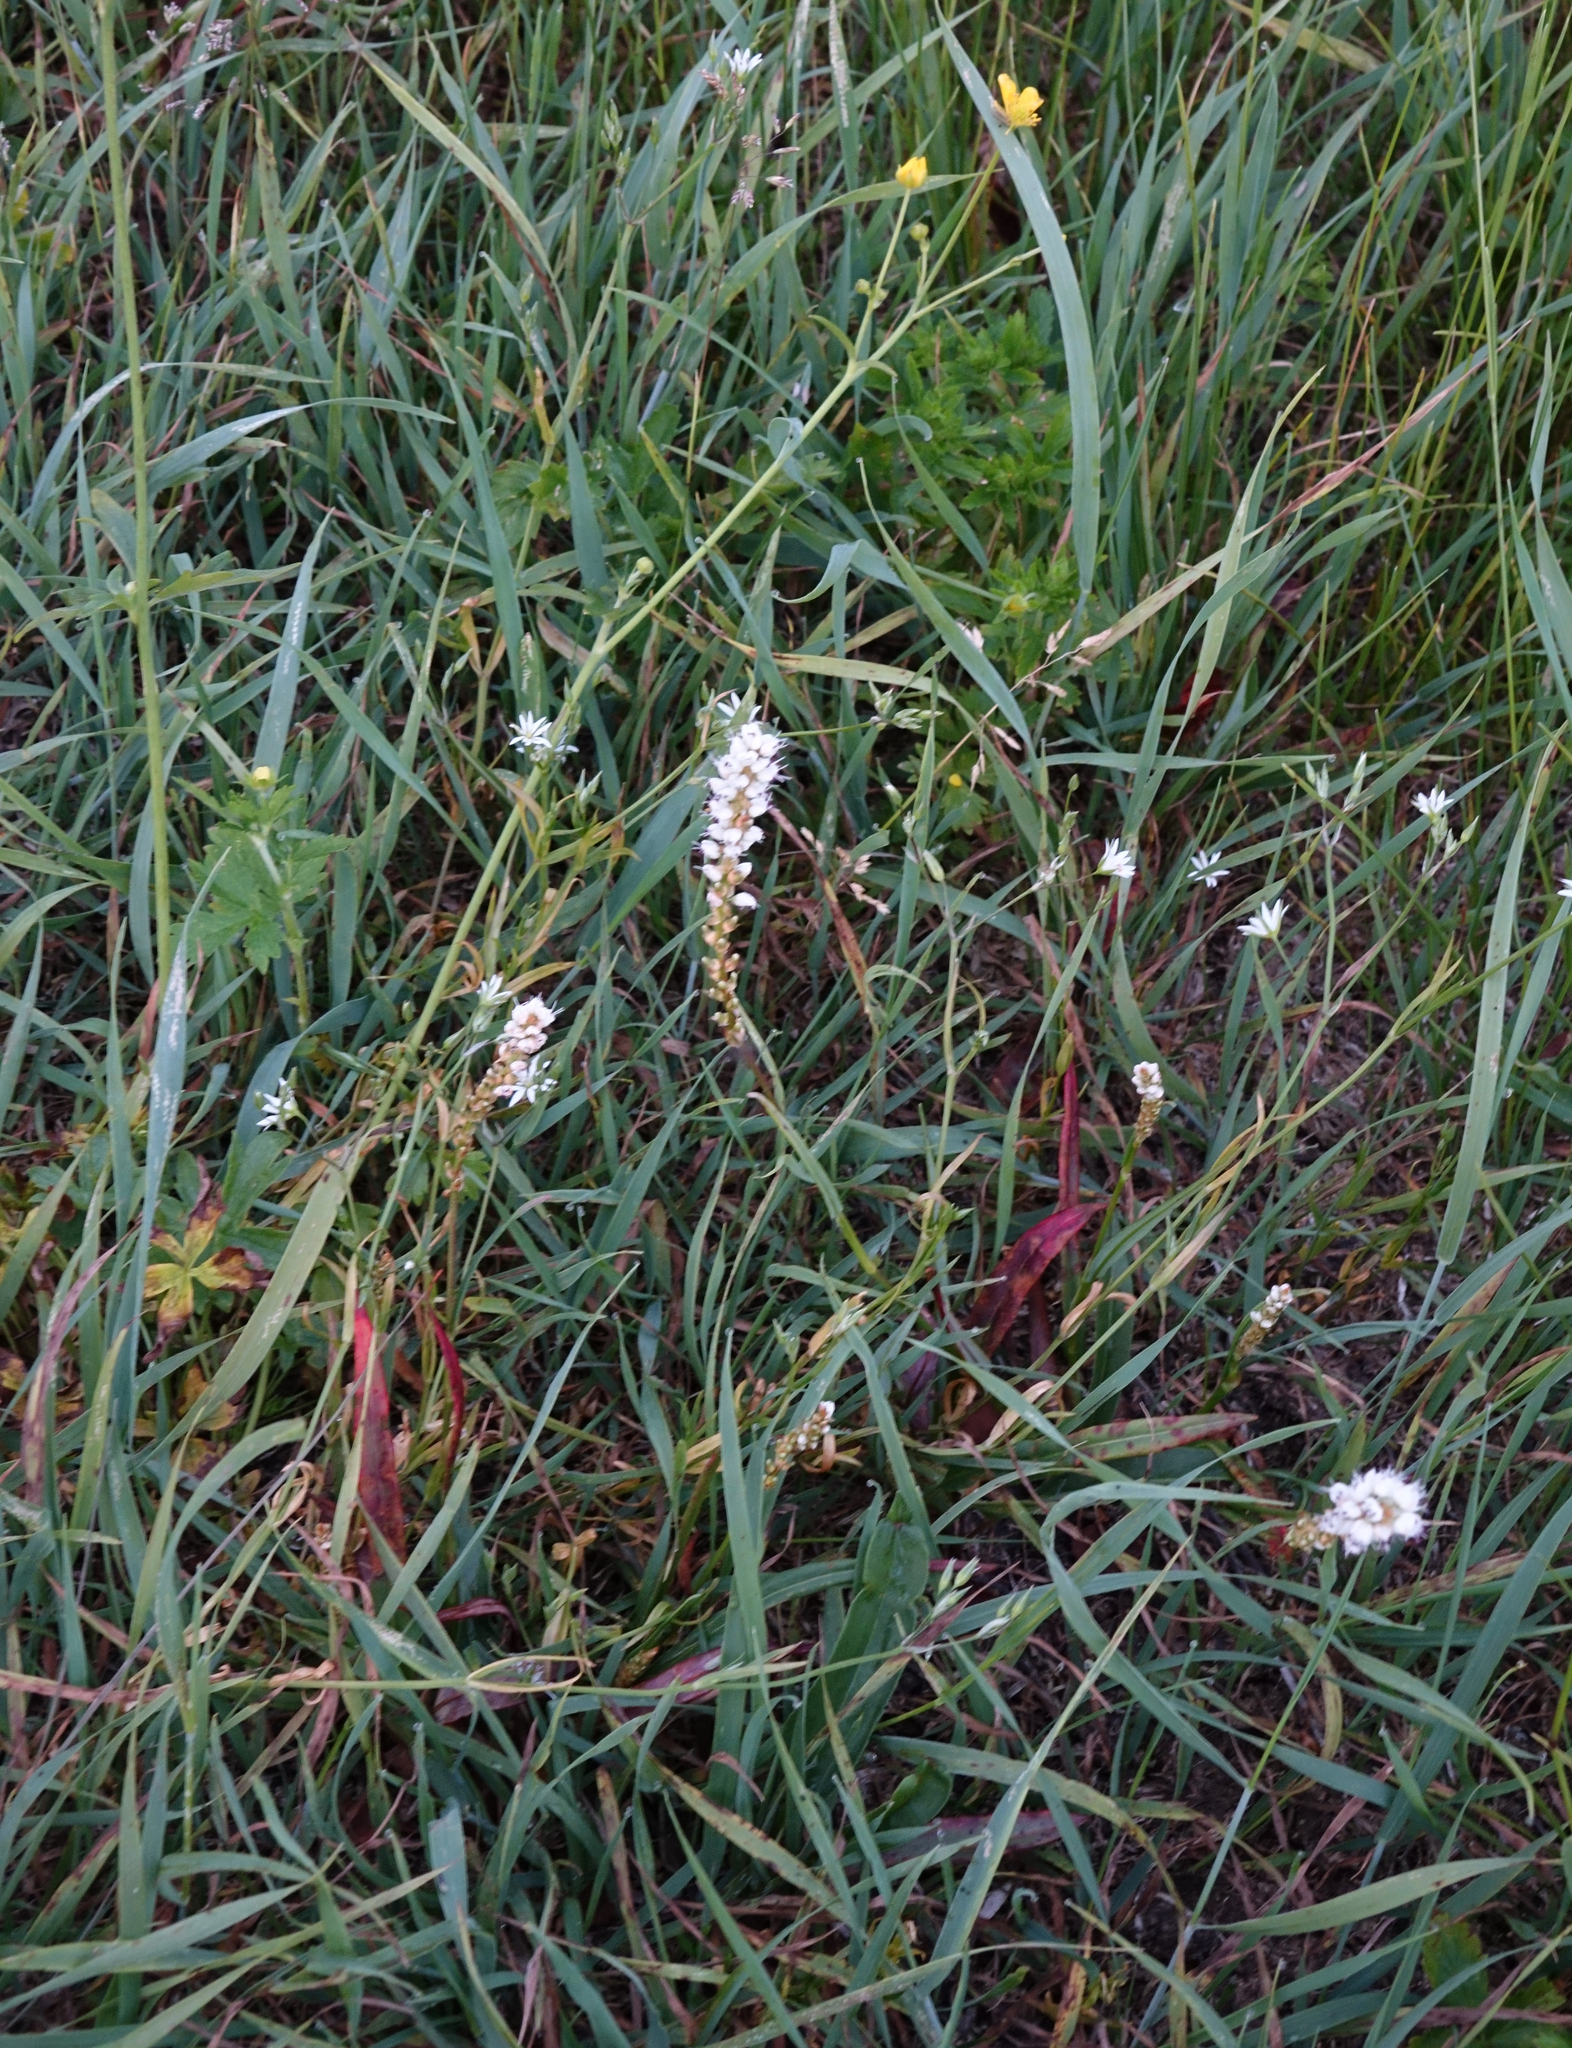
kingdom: Plantae
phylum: Tracheophyta
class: Magnoliopsida
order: Caryophyllales
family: Polygonaceae
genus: Bistorta
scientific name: Bistorta vivipara
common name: Alpine bistort
